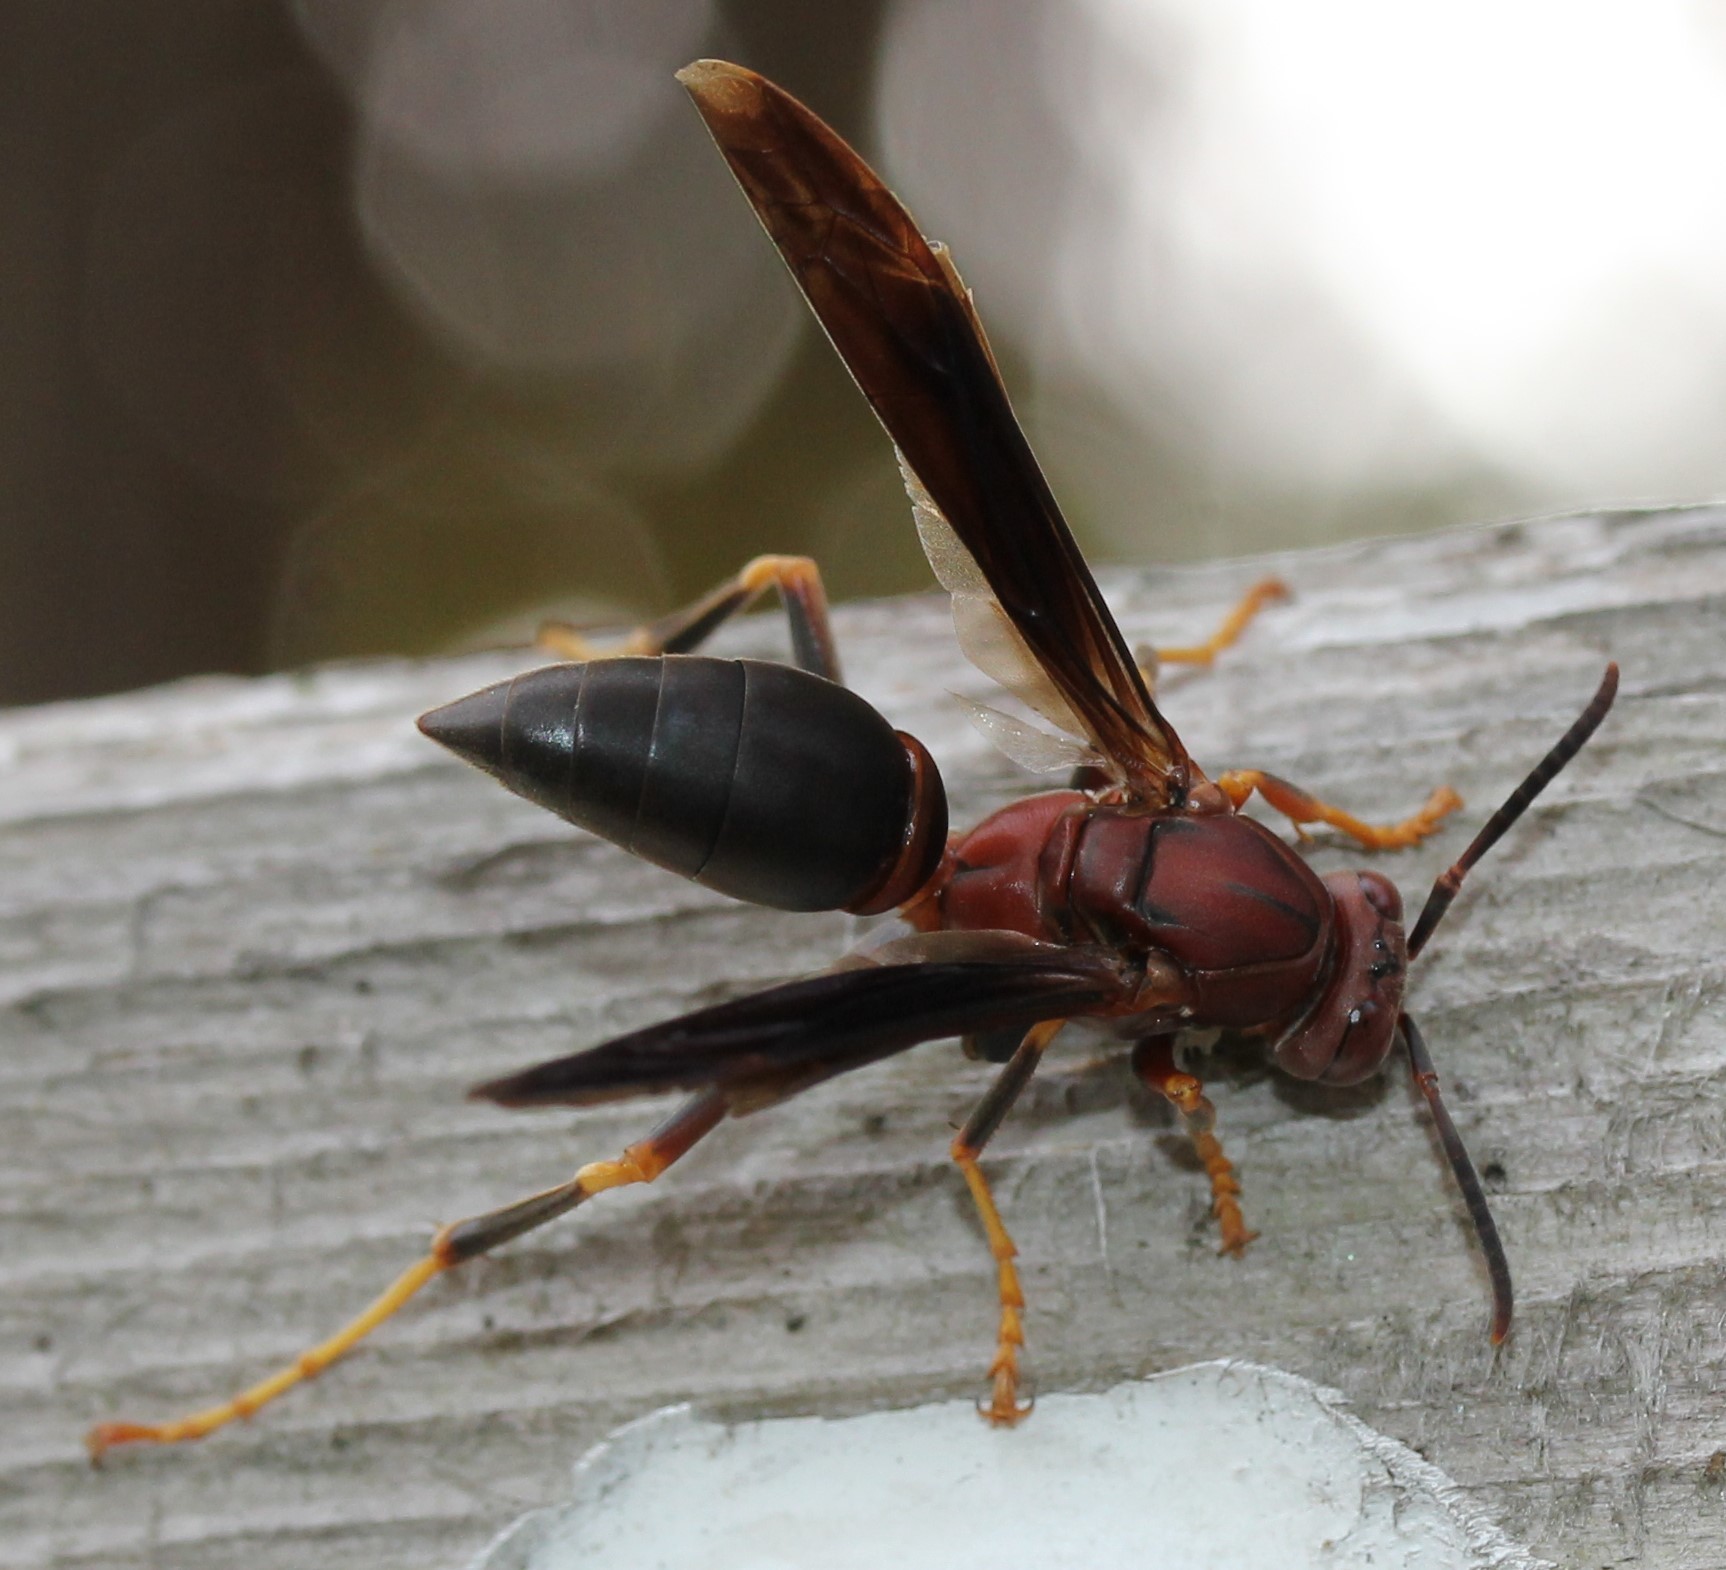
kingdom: Animalia
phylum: Arthropoda
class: Insecta
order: Hymenoptera
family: Eumenidae
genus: Polistes
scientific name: Polistes metricus
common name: Metric paper wasp
